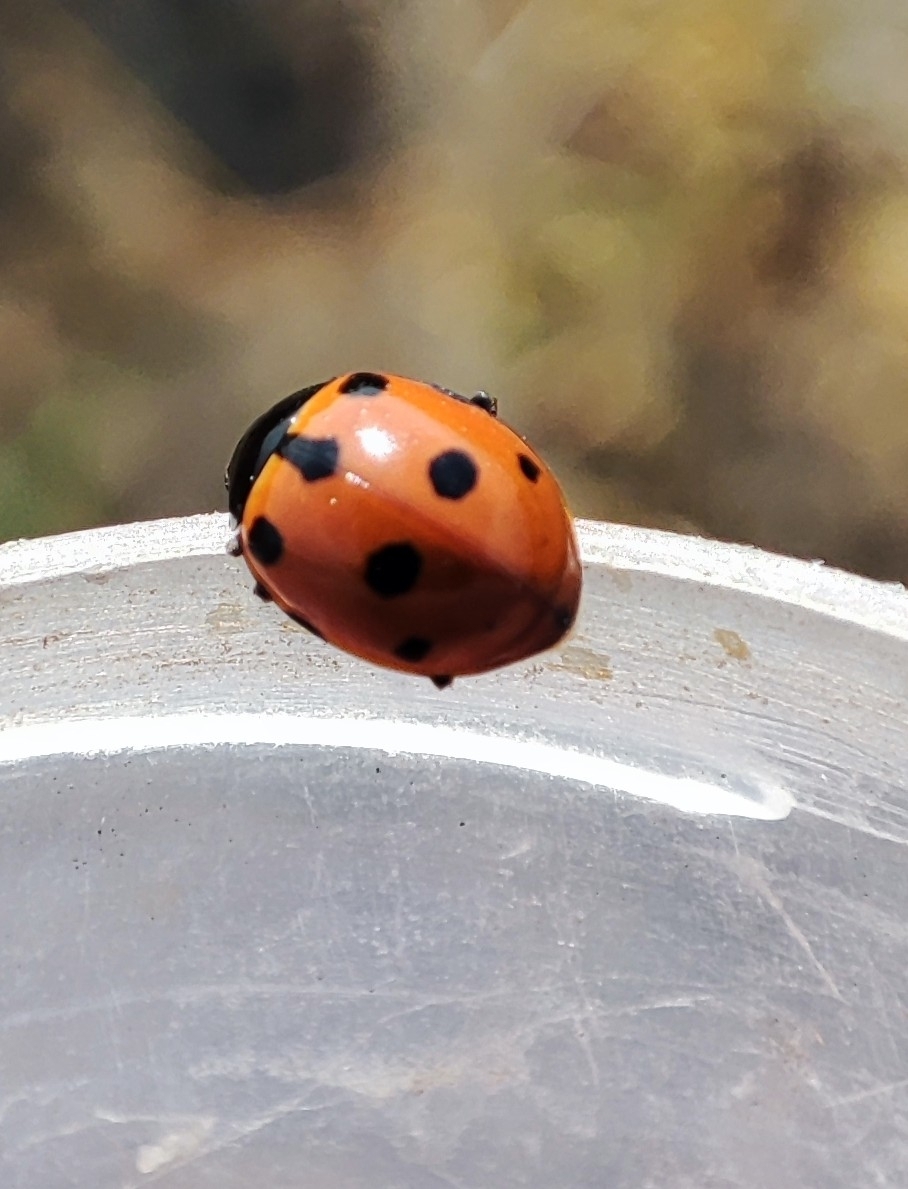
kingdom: Animalia
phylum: Arthropoda
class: Insecta
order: Coleoptera
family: Coccinellidae
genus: Ceratomegilla
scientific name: Ceratomegilla undecimnotata
